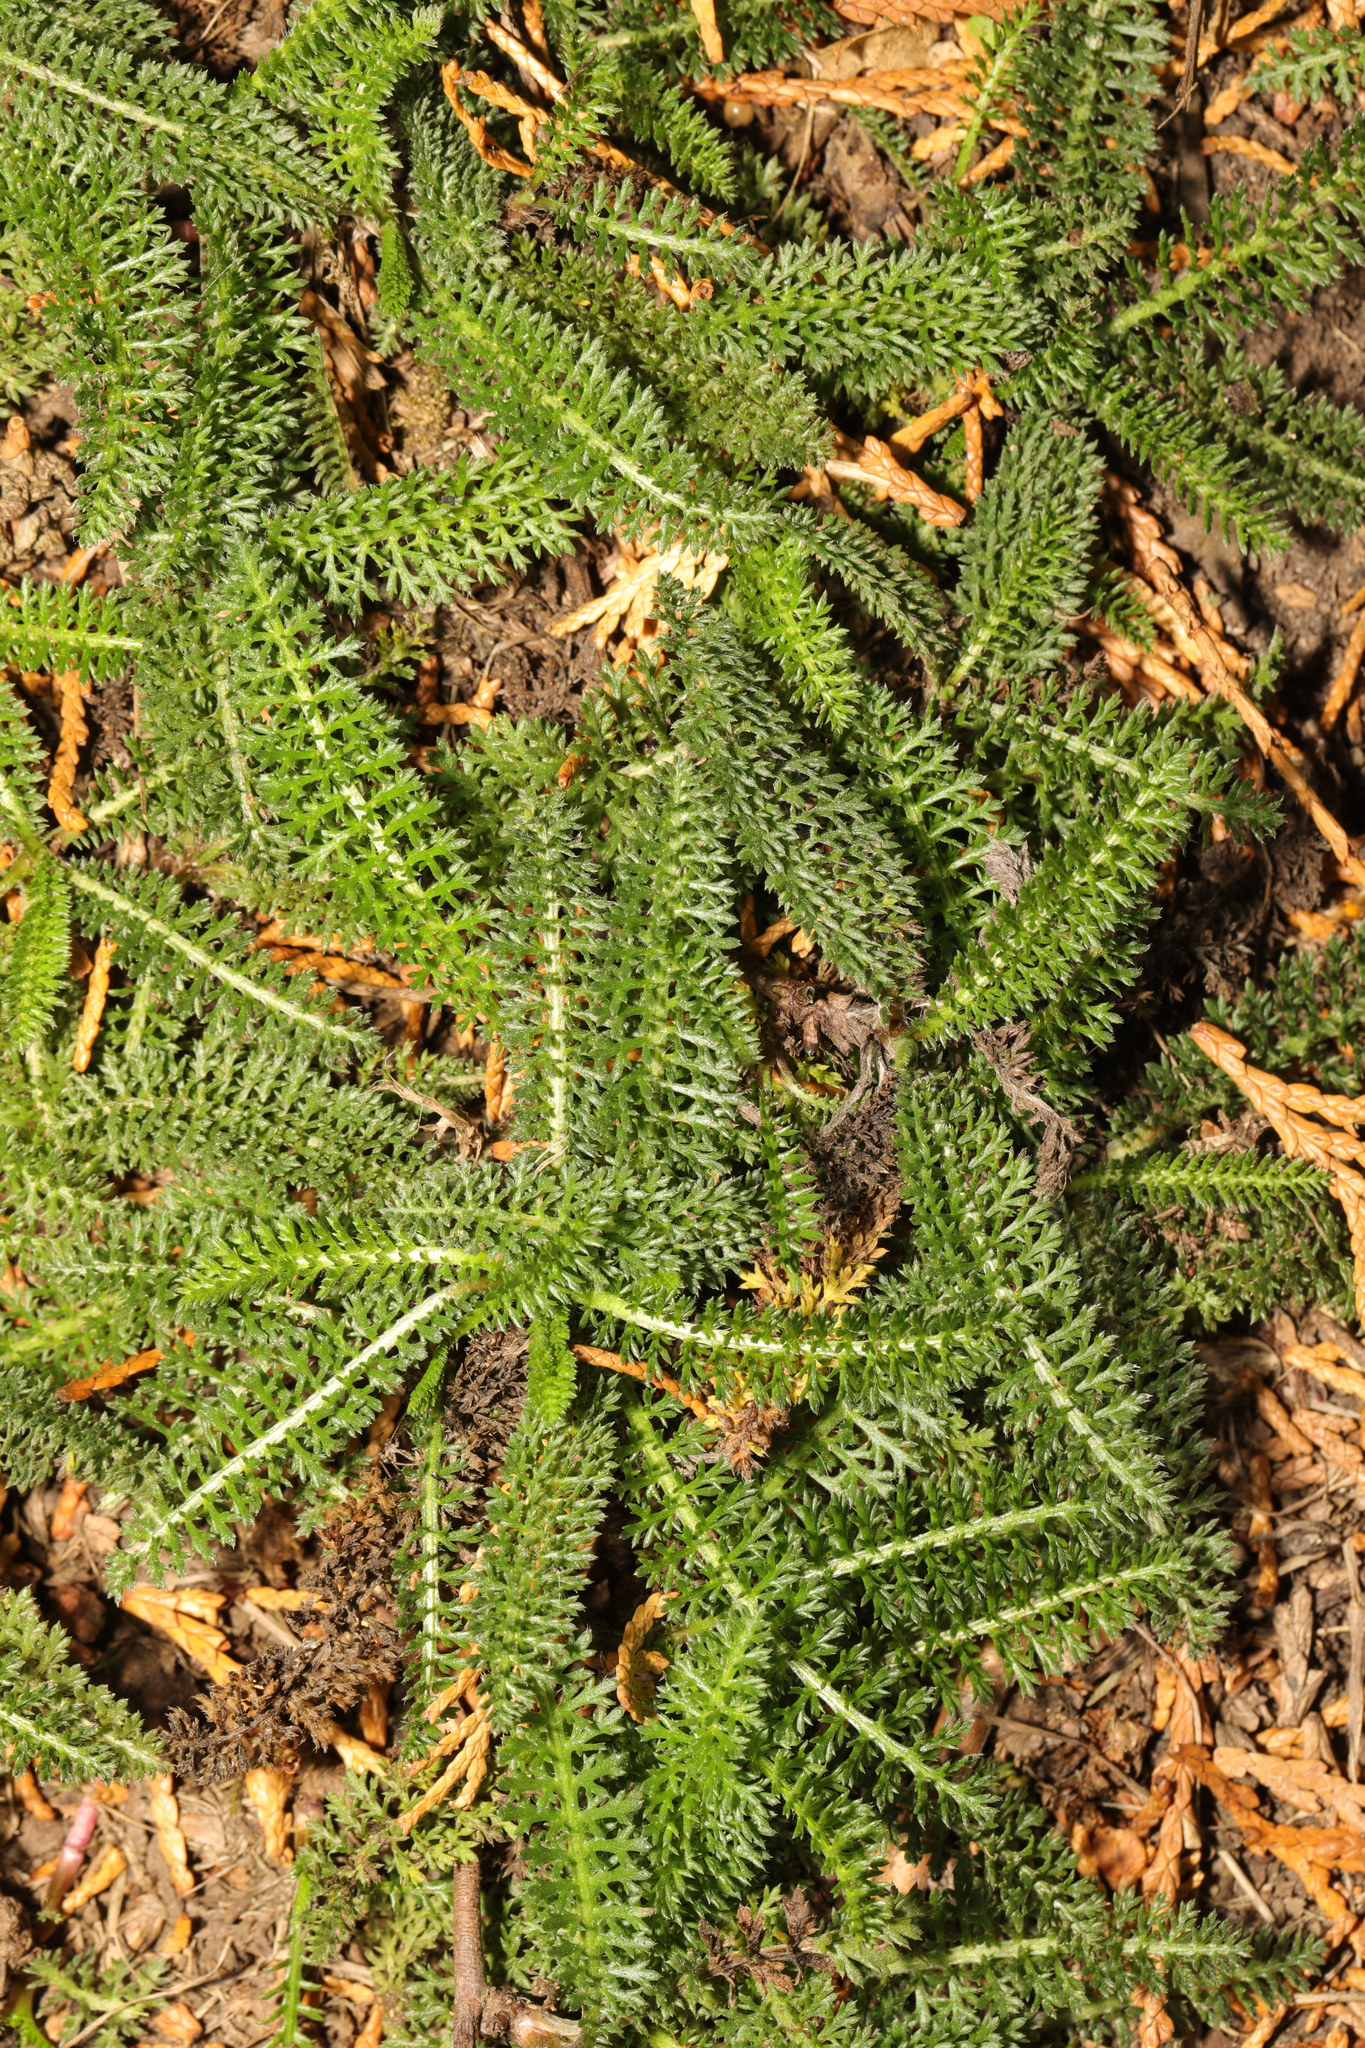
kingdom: Plantae
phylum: Tracheophyta
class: Magnoliopsida
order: Asterales
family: Asteraceae
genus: Achillea
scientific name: Achillea millefolium
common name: Yarrow
